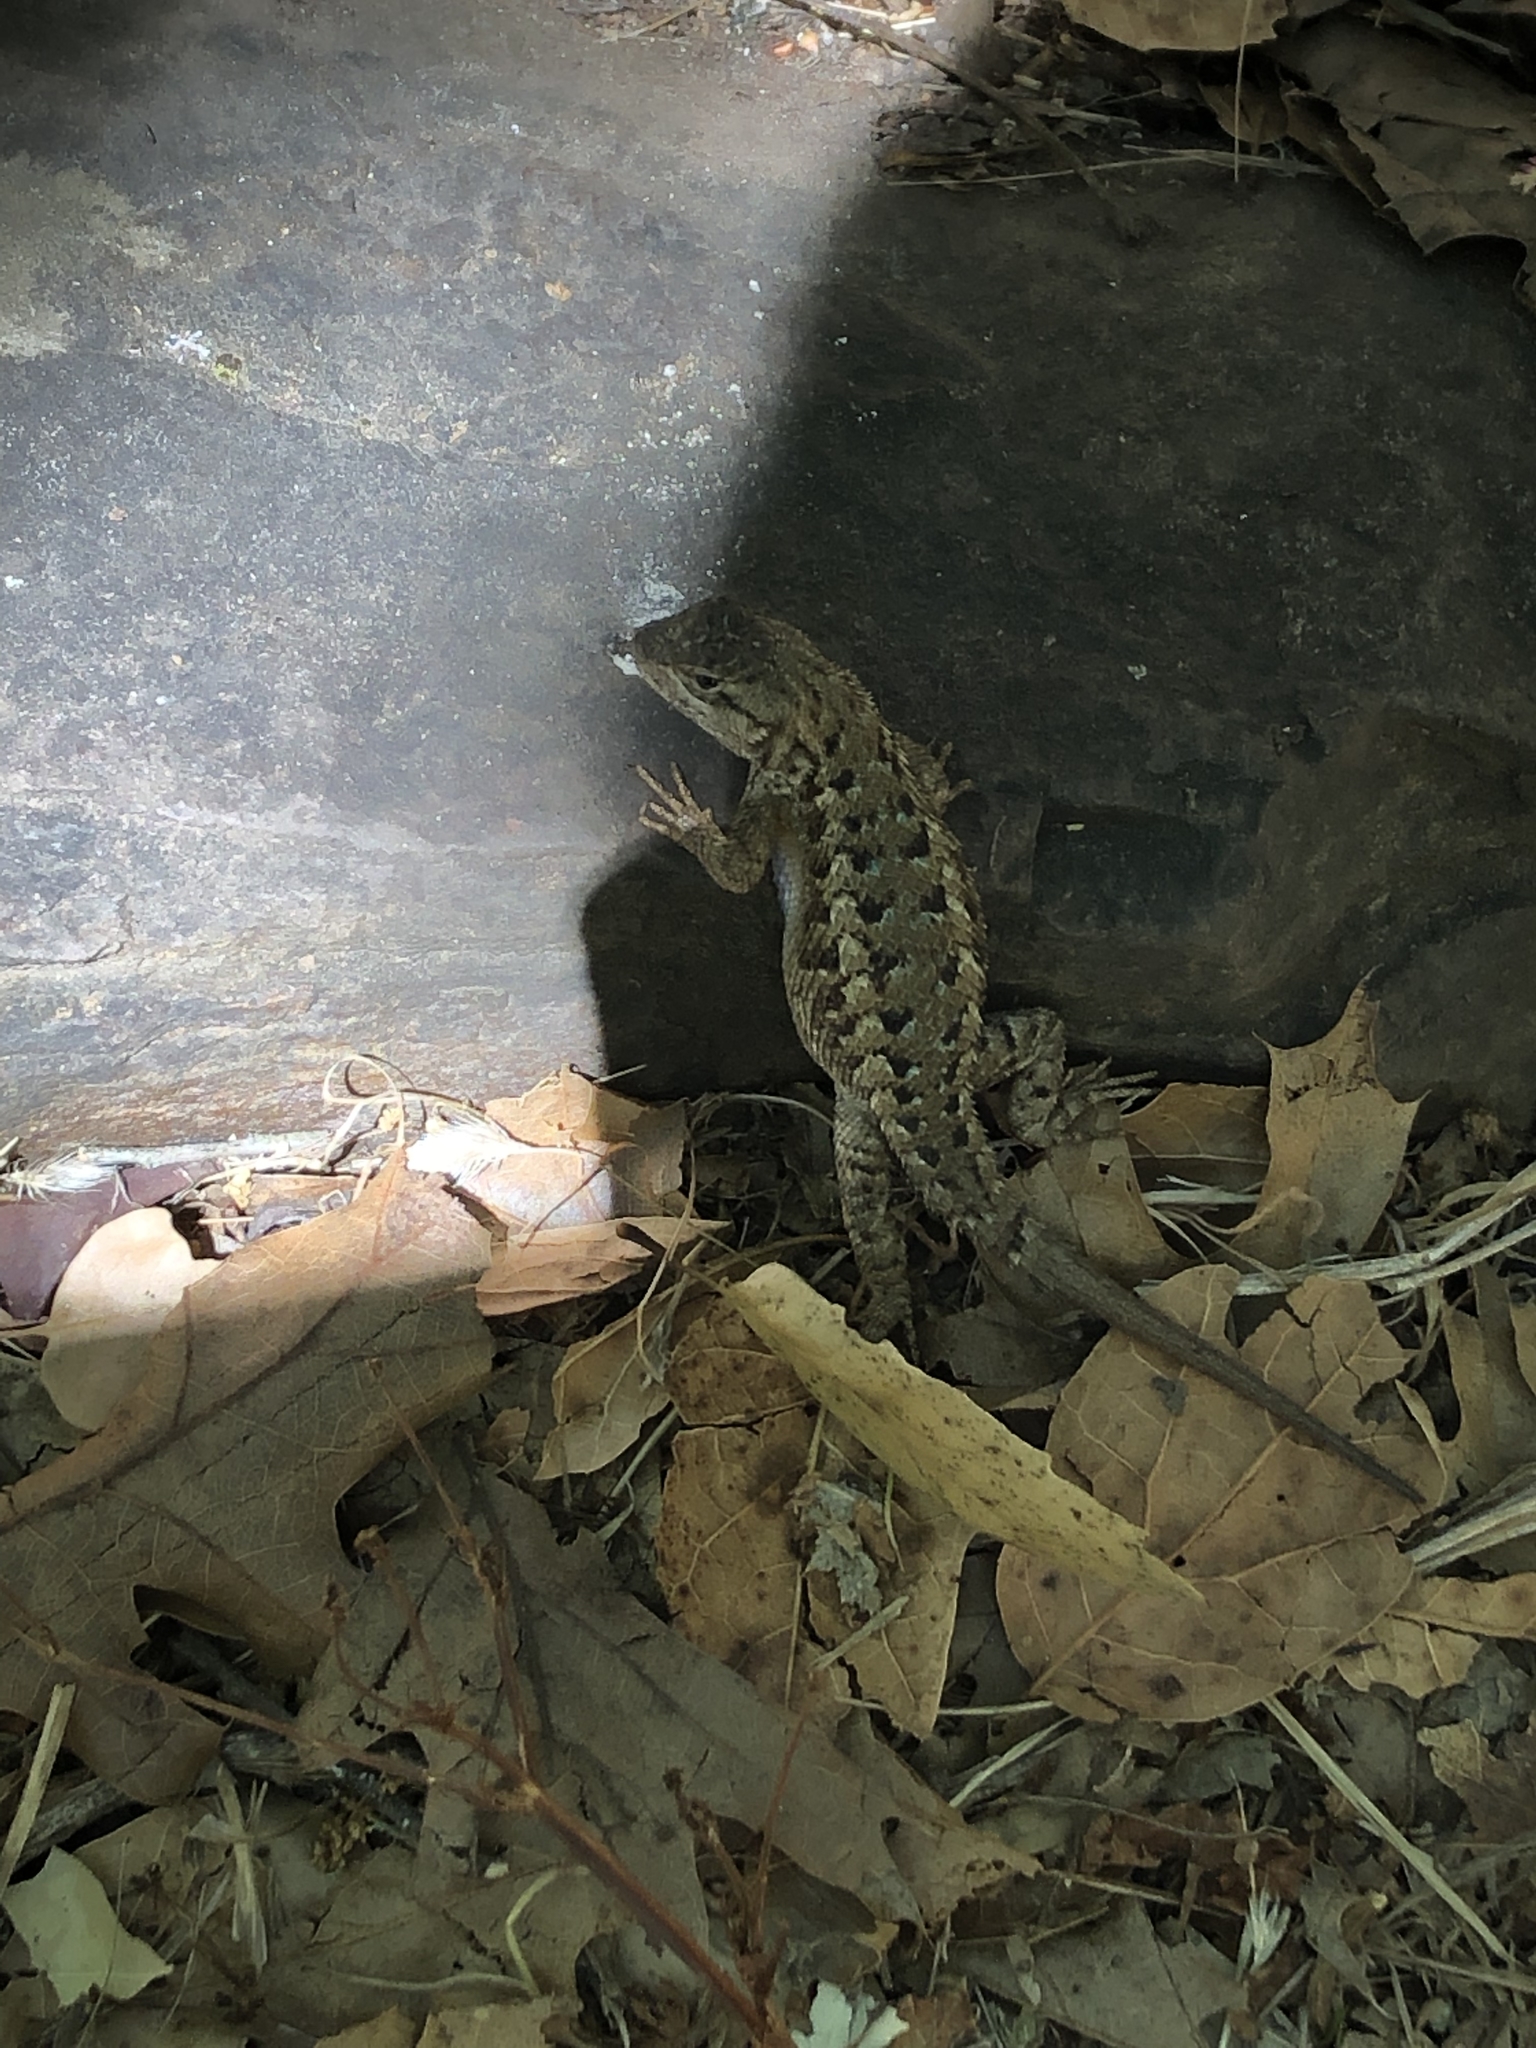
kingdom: Animalia
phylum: Chordata
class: Squamata
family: Phrynosomatidae
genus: Sceloporus
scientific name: Sceloporus occidentalis
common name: Western fence lizard
